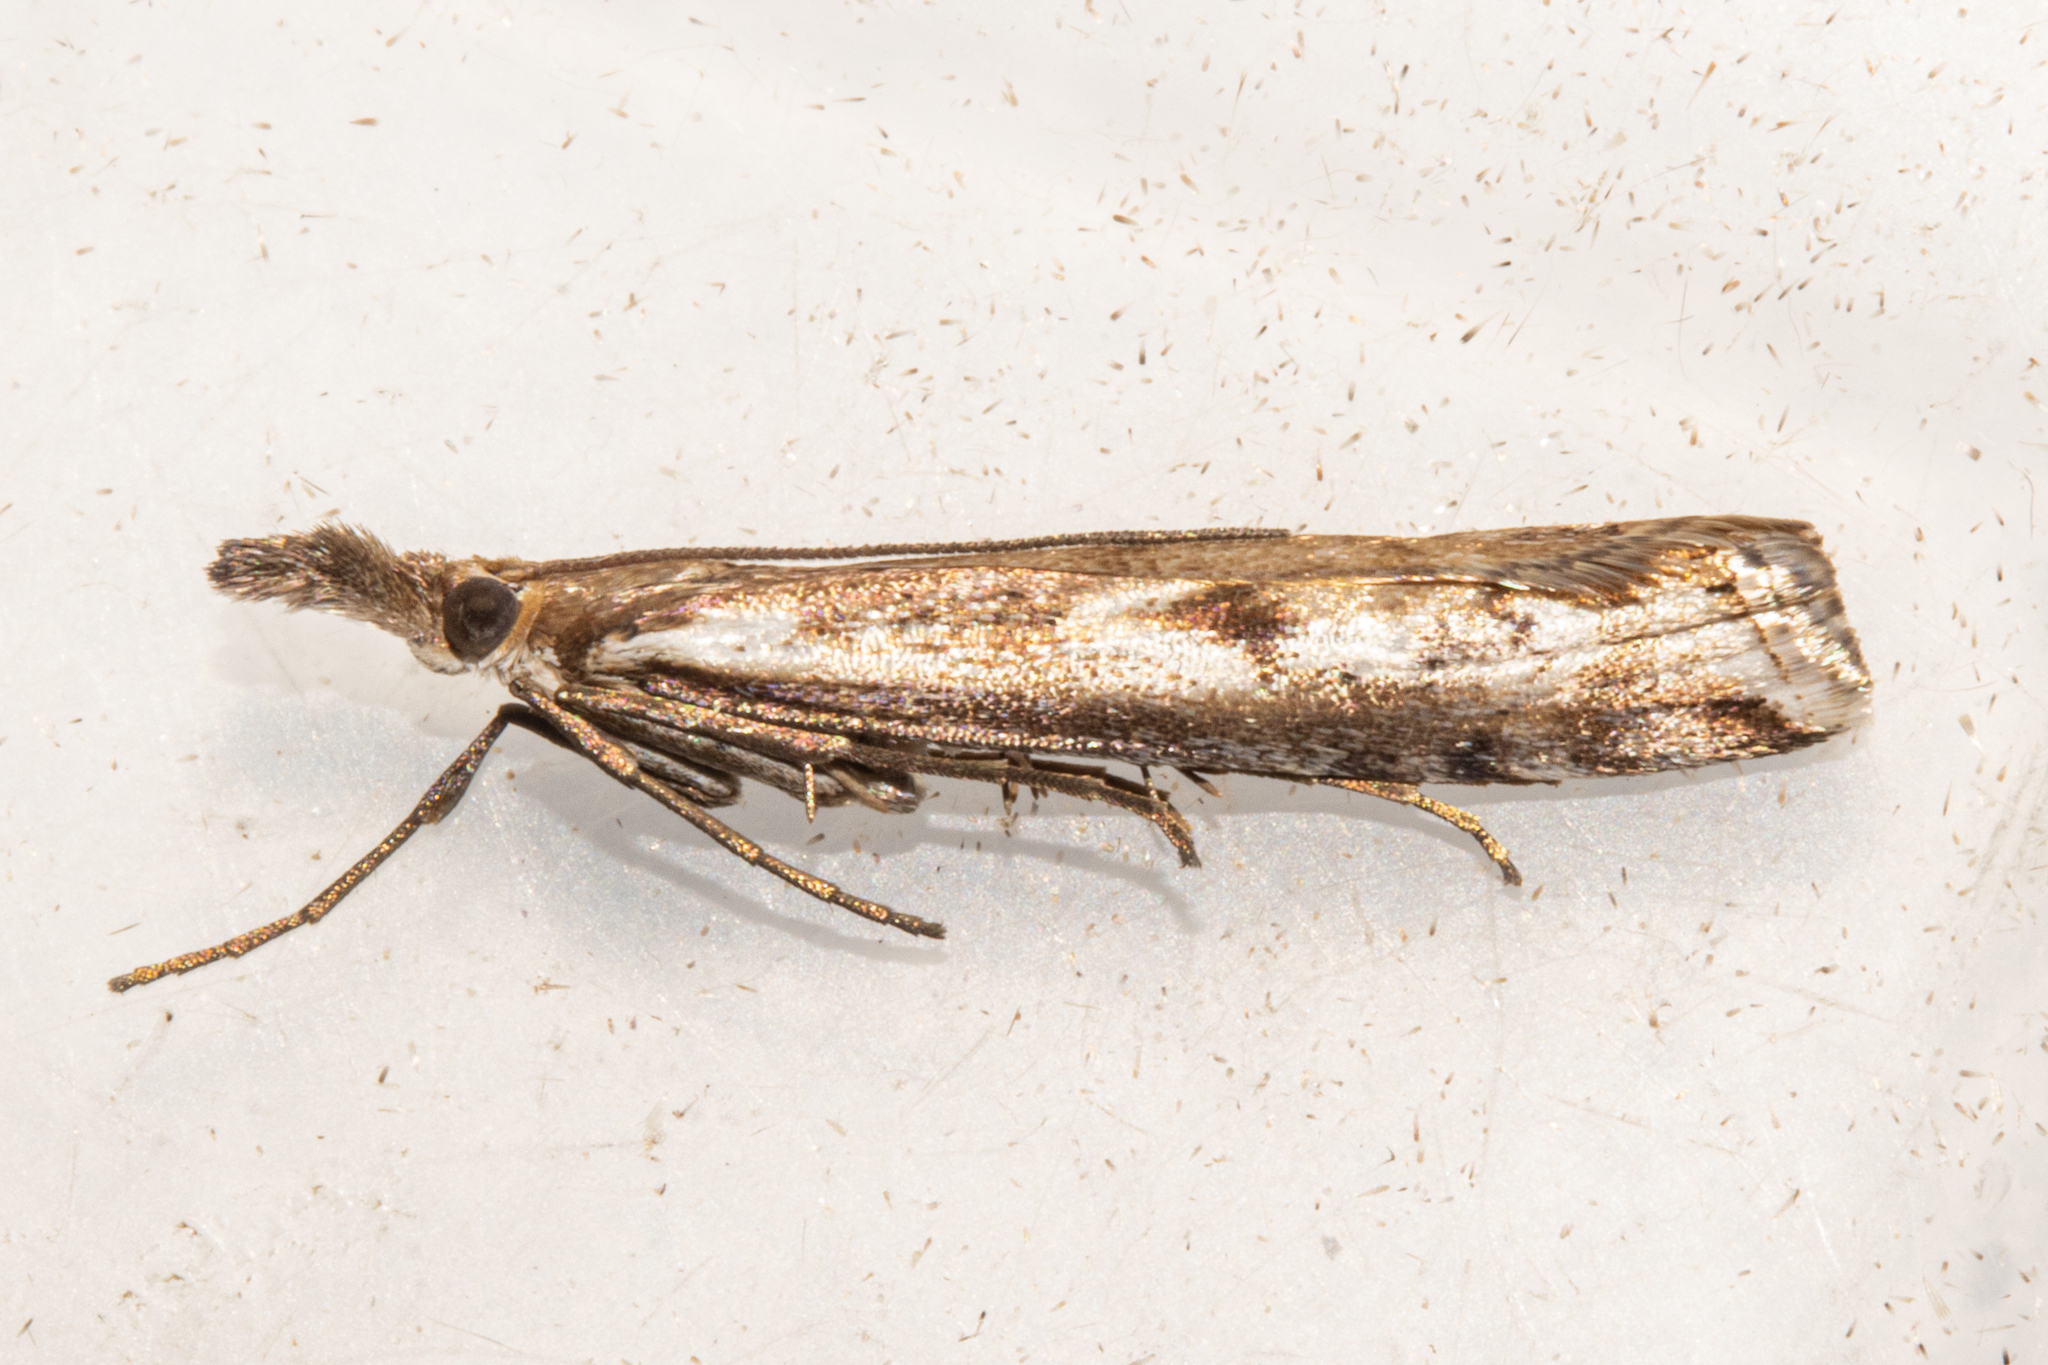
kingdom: Animalia
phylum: Arthropoda
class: Insecta
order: Lepidoptera
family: Crambidae
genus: Orocrambus
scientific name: Orocrambus vulgaris
